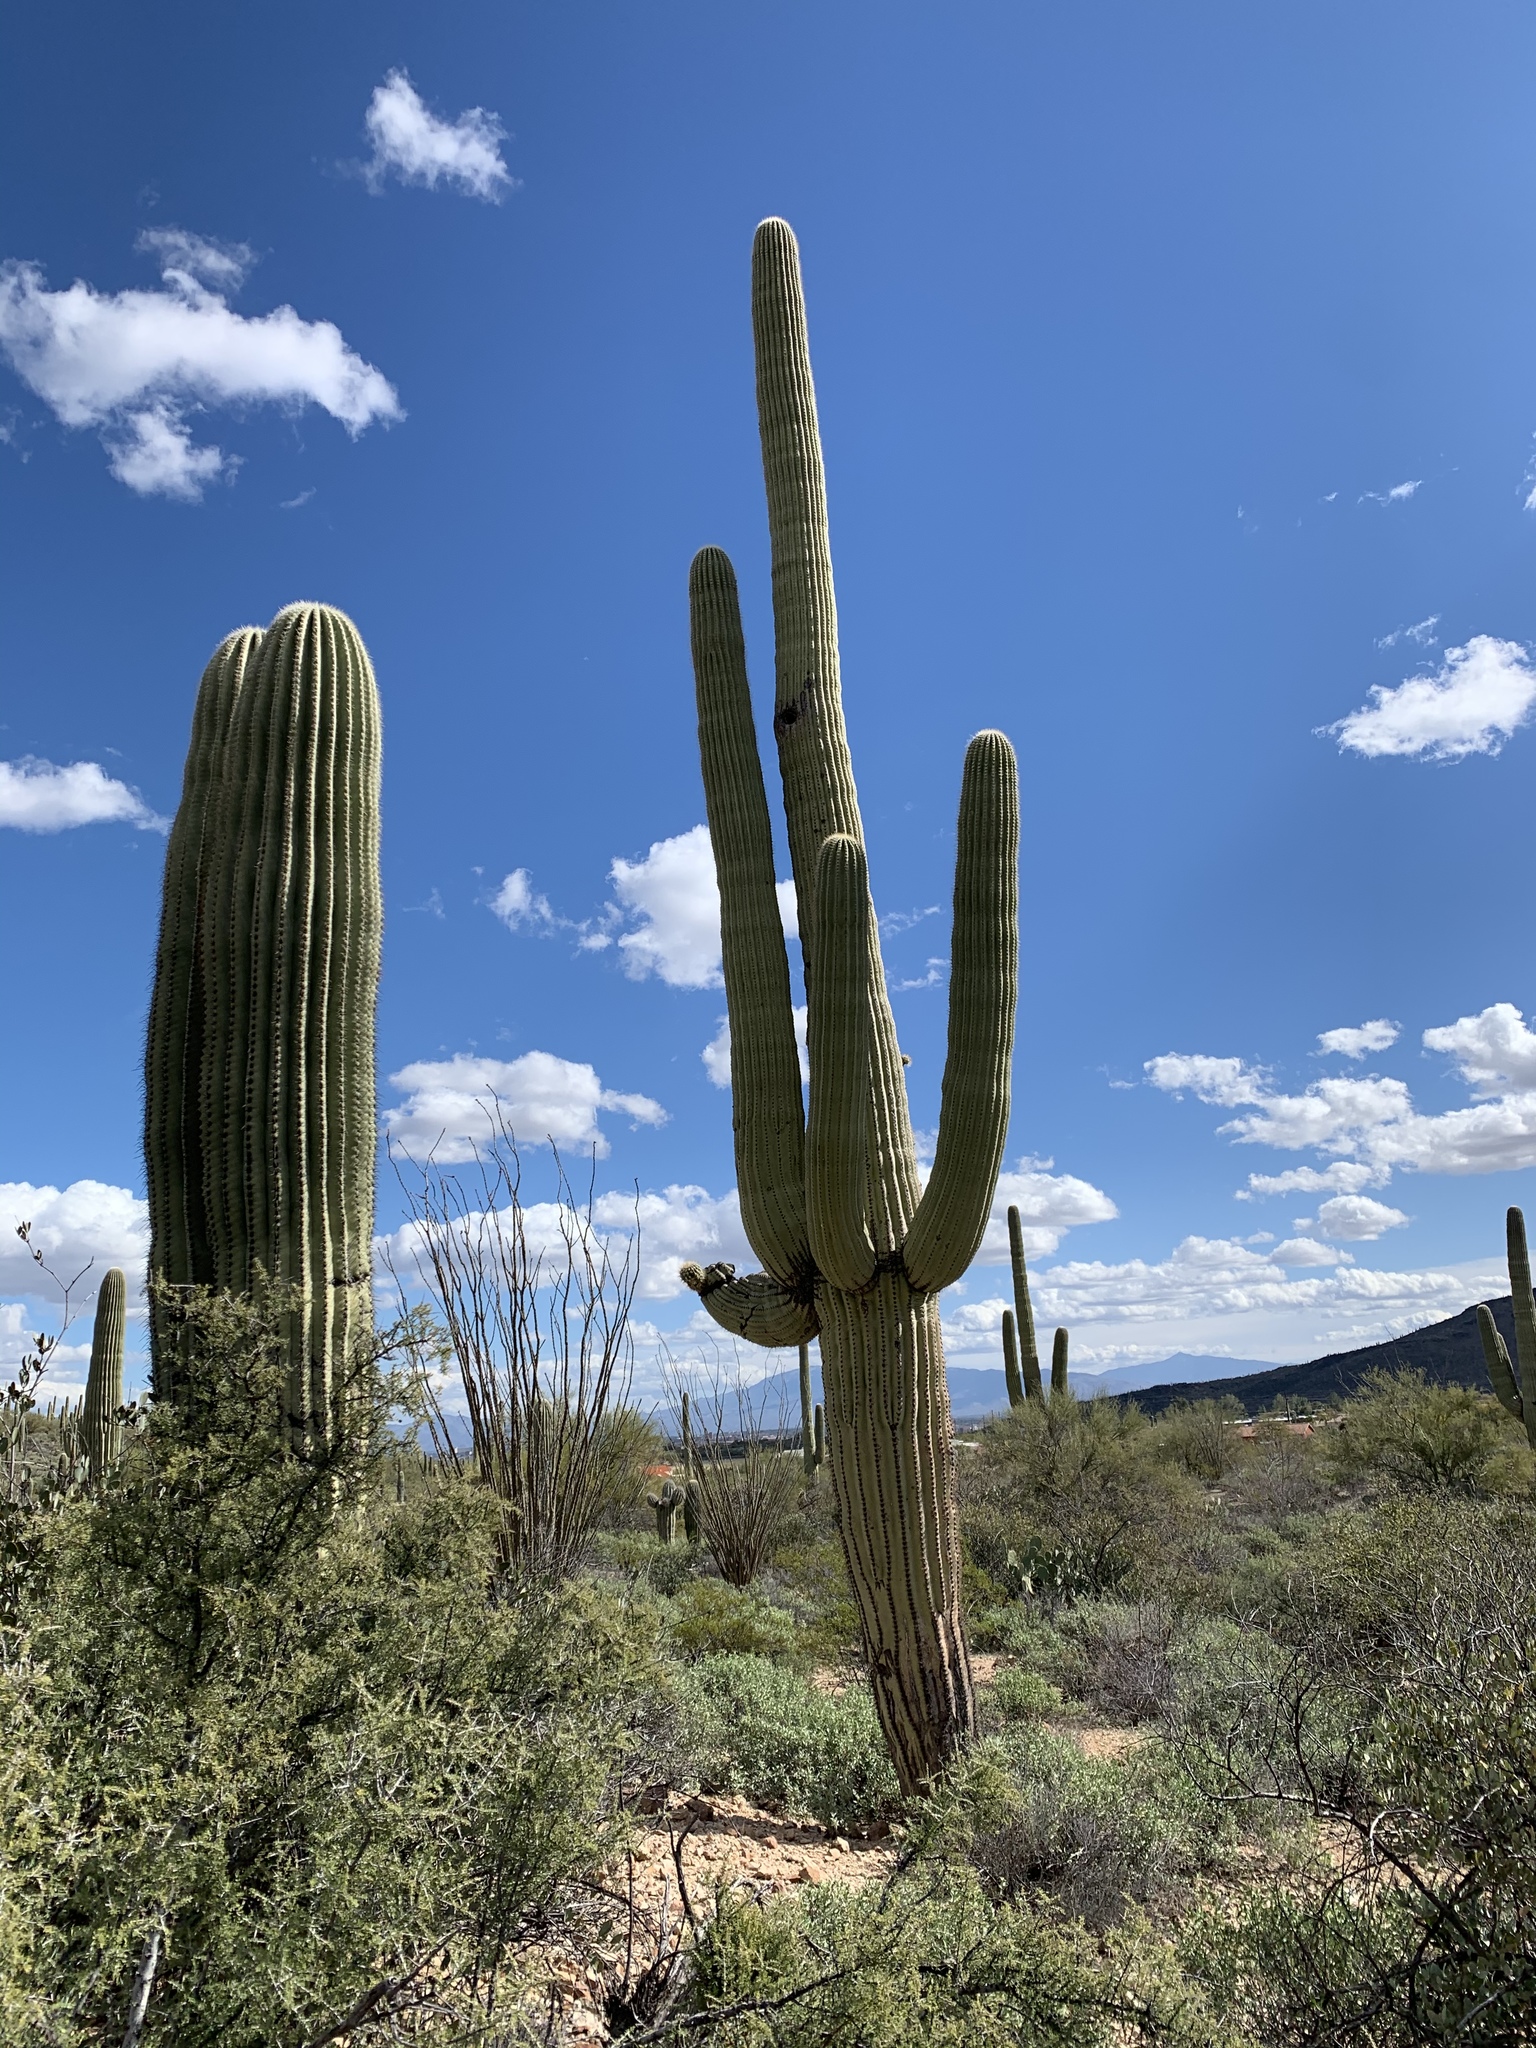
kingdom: Plantae
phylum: Tracheophyta
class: Magnoliopsida
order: Caryophyllales
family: Cactaceae
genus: Carnegiea
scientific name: Carnegiea gigantea
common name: Saguaro
